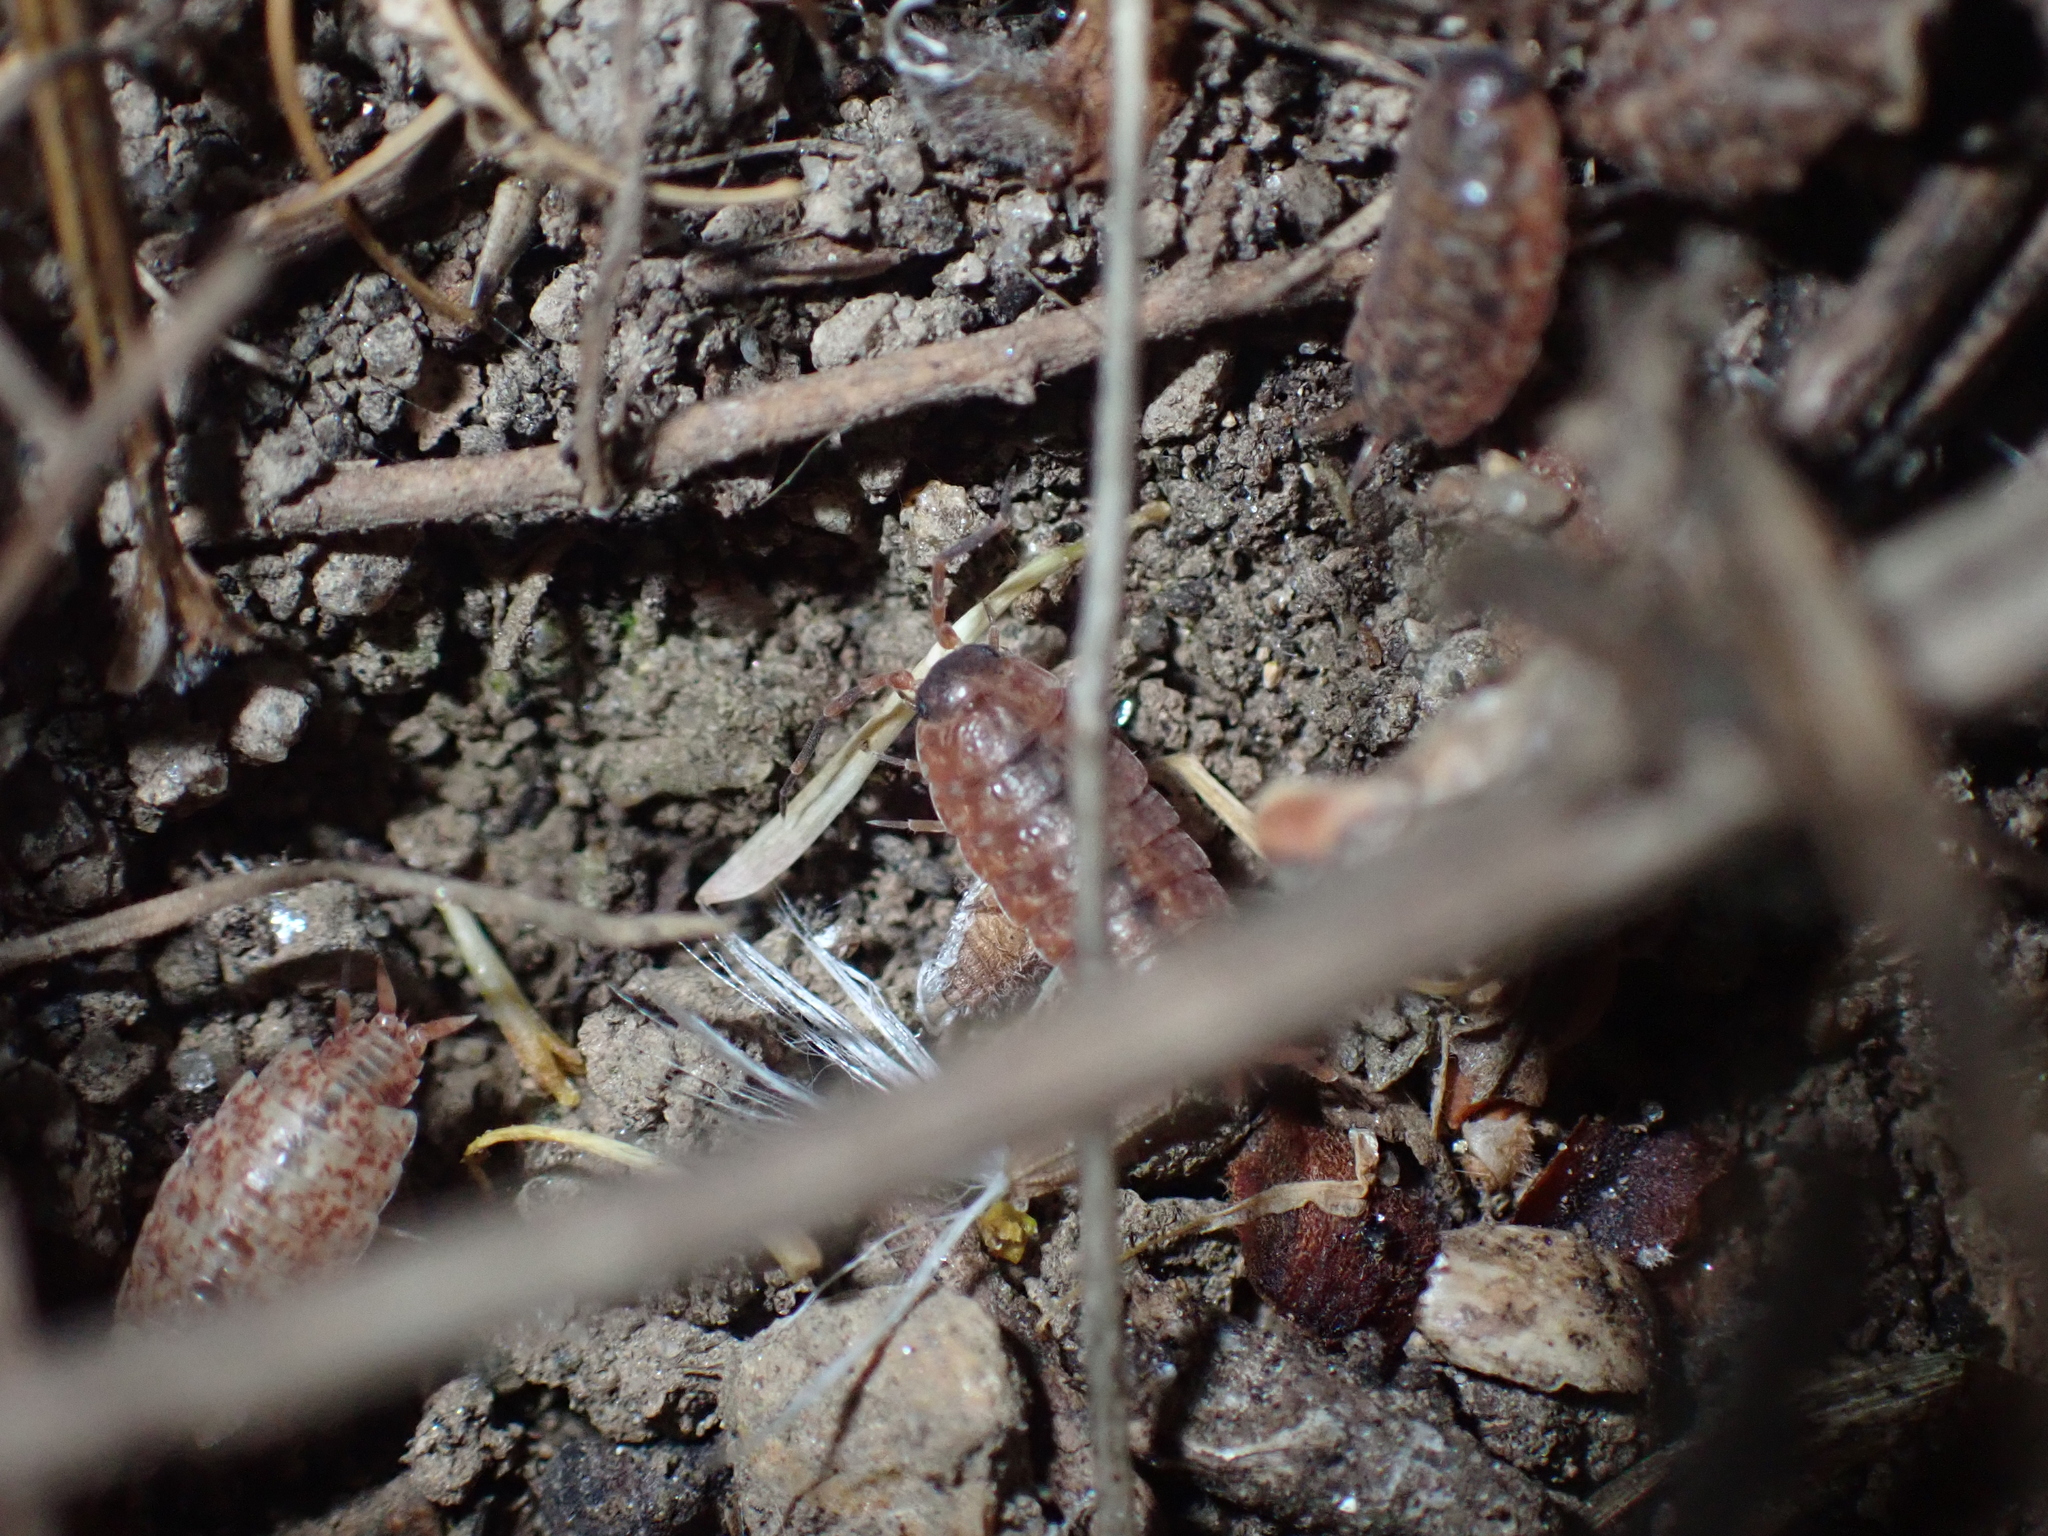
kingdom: Animalia
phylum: Arthropoda
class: Malacostraca
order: Isopoda
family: Porcellionidae
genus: Porcellionides
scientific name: Porcellionides cingendus
